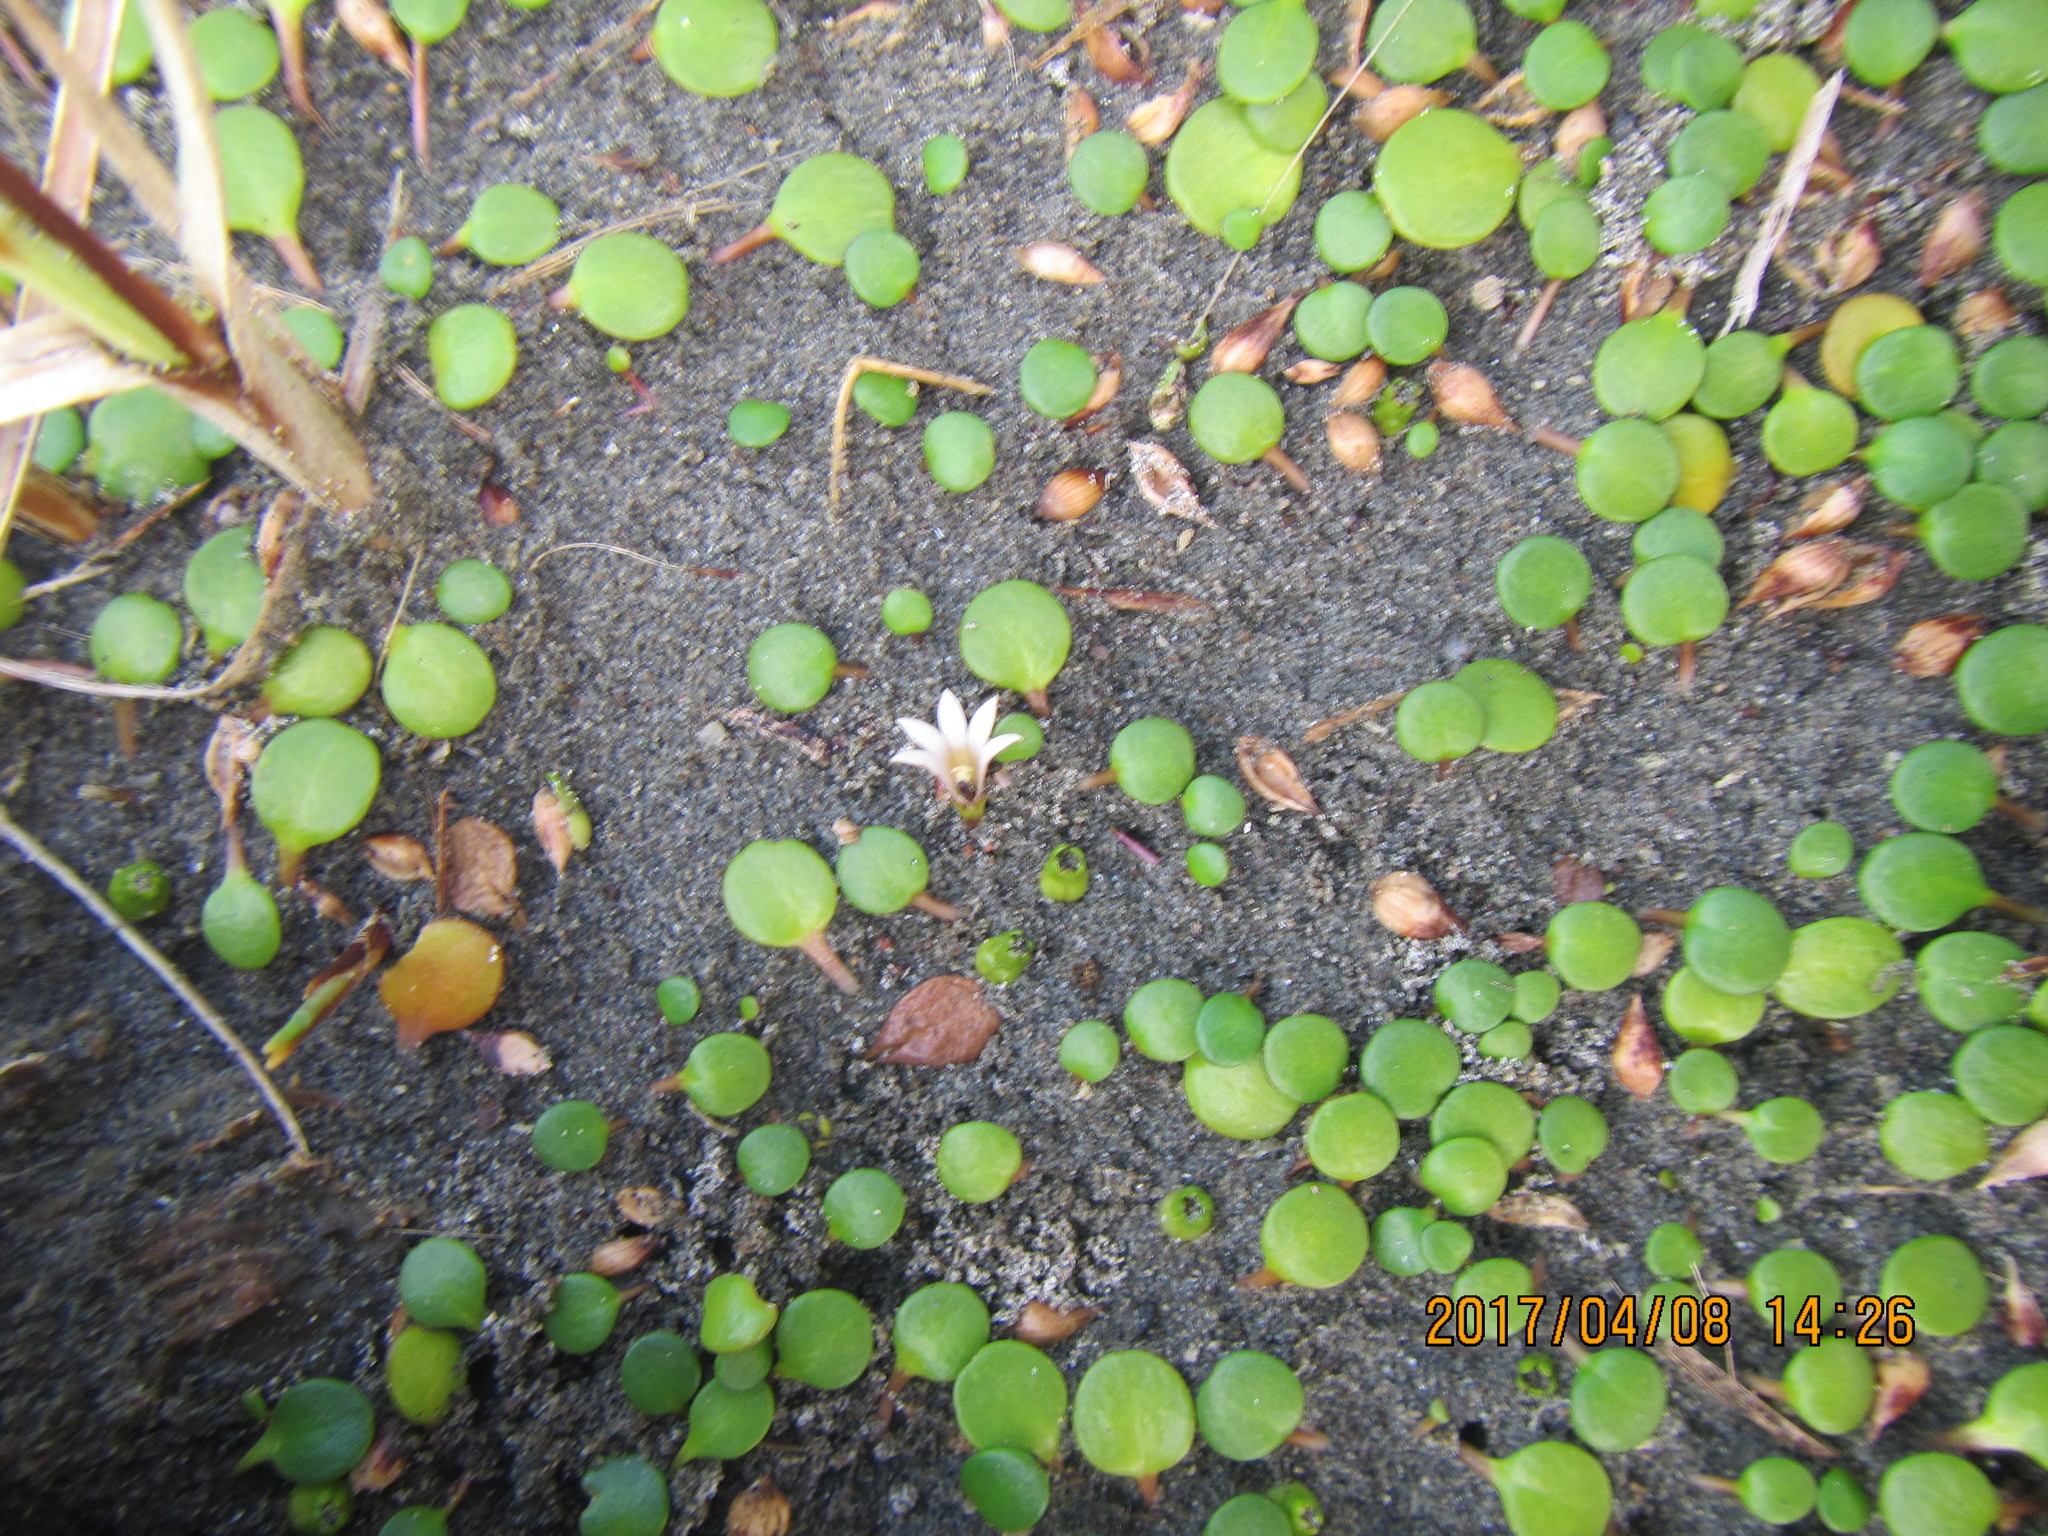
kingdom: Plantae
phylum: Tracheophyta
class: Magnoliopsida
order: Asterales
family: Goodeniaceae
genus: Goodenia
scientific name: Goodenia heenanii
